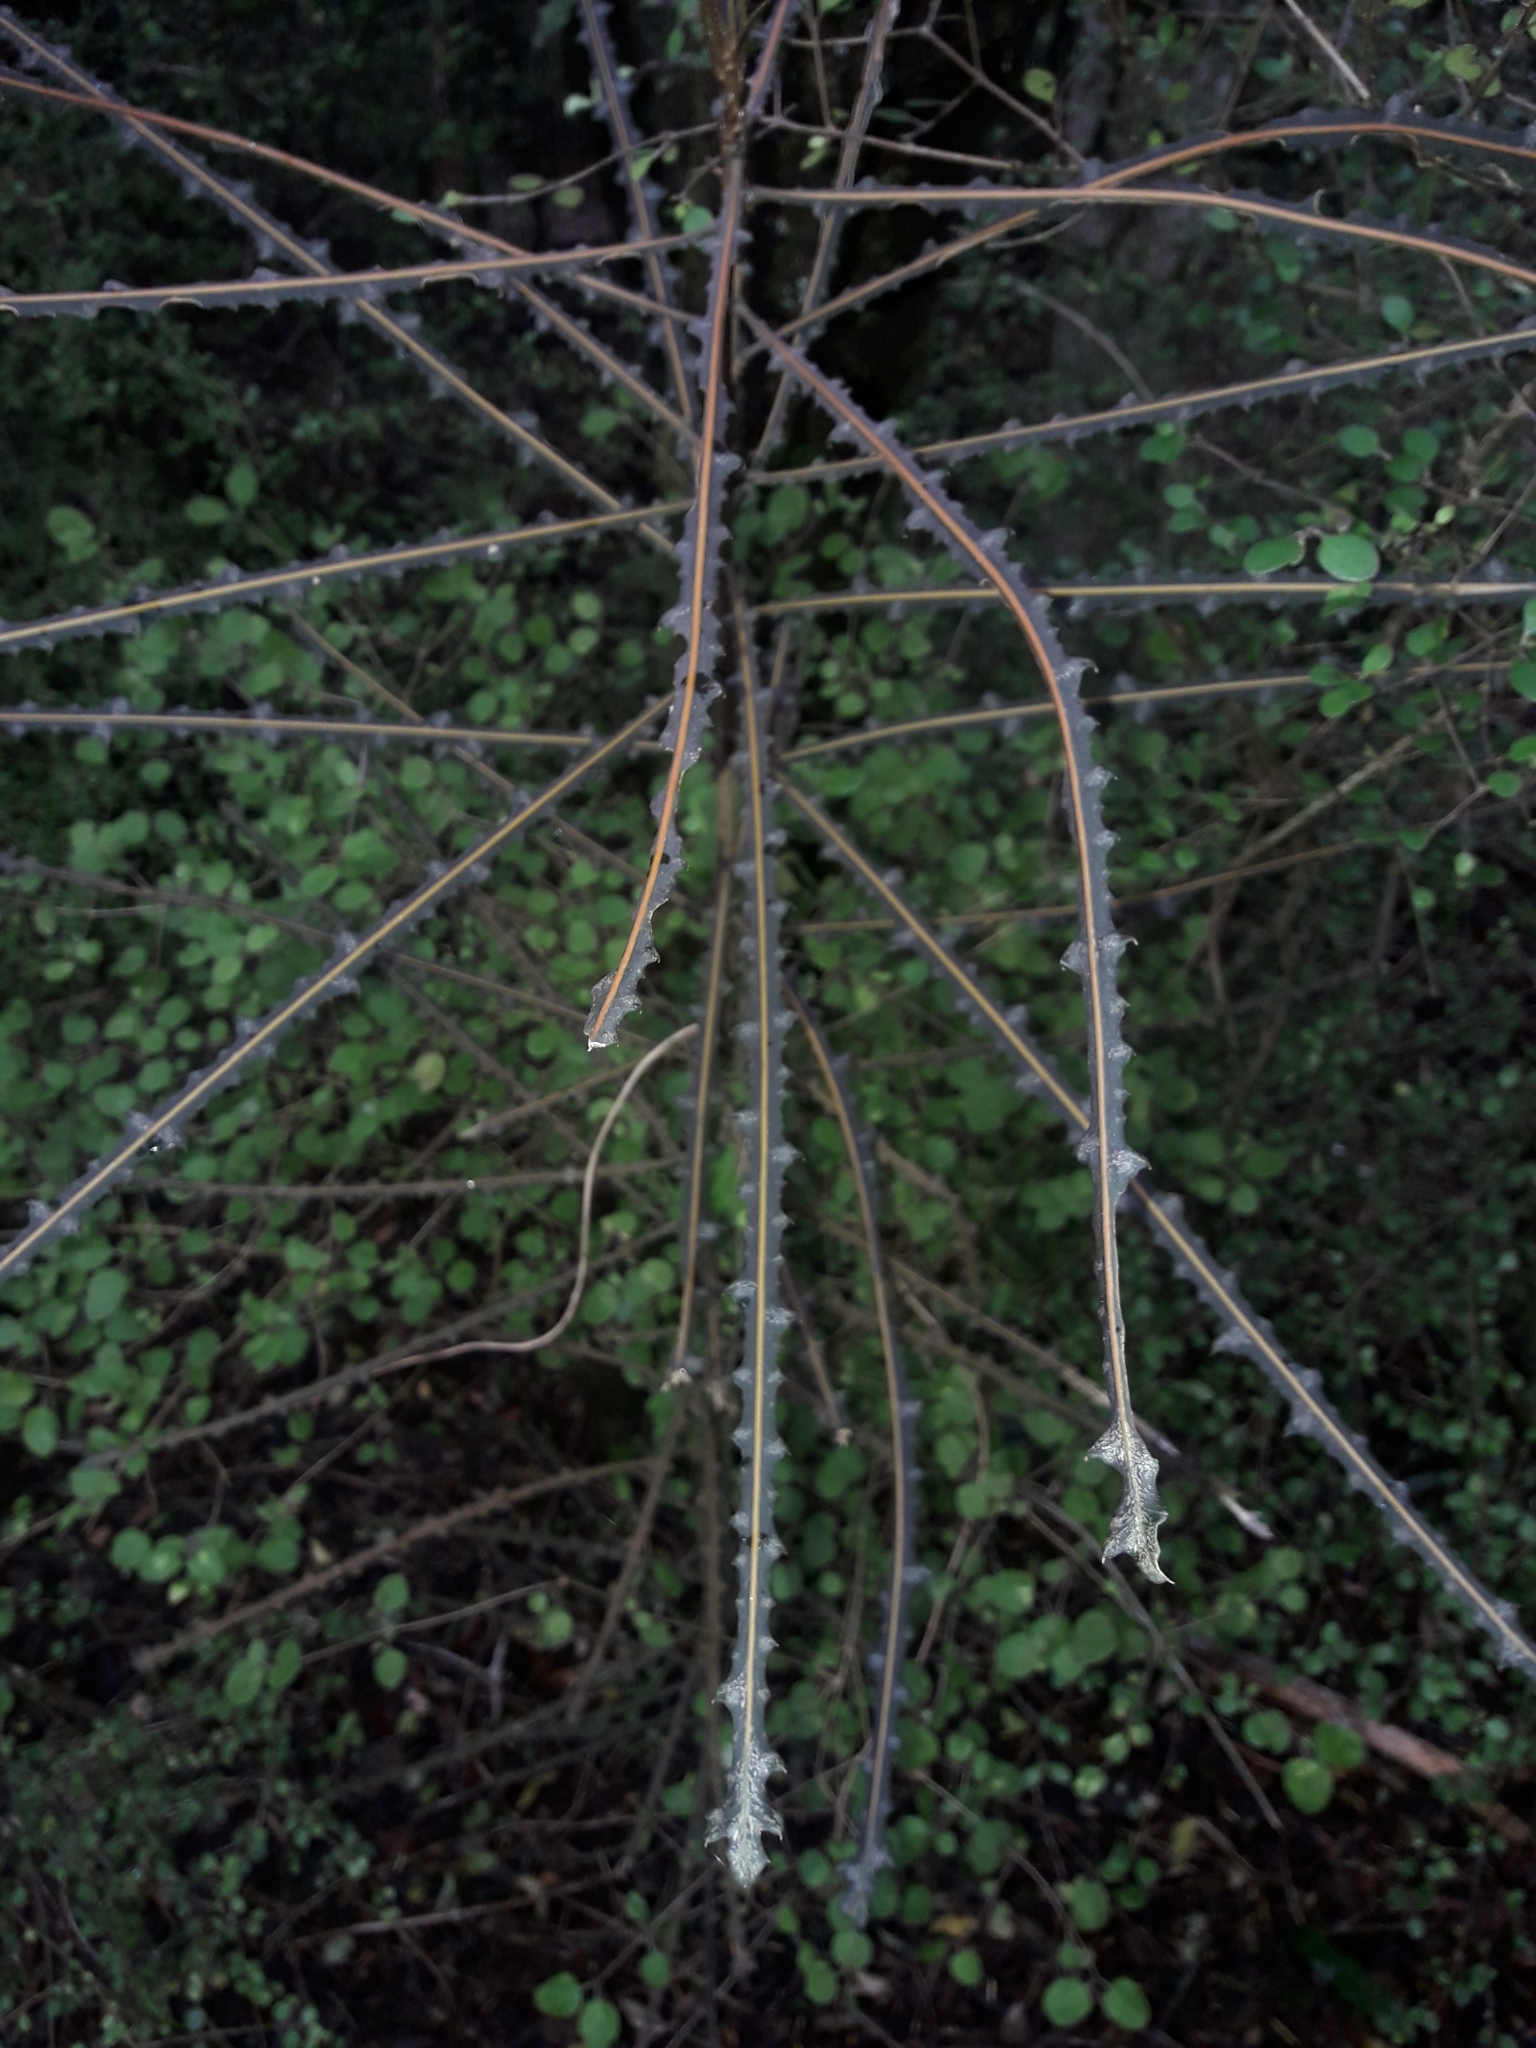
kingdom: Plantae
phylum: Tracheophyta
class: Magnoliopsida
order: Apiales
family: Araliaceae
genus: Pseudopanax
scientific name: Pseudopanax ferox
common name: Fierce lancewood
